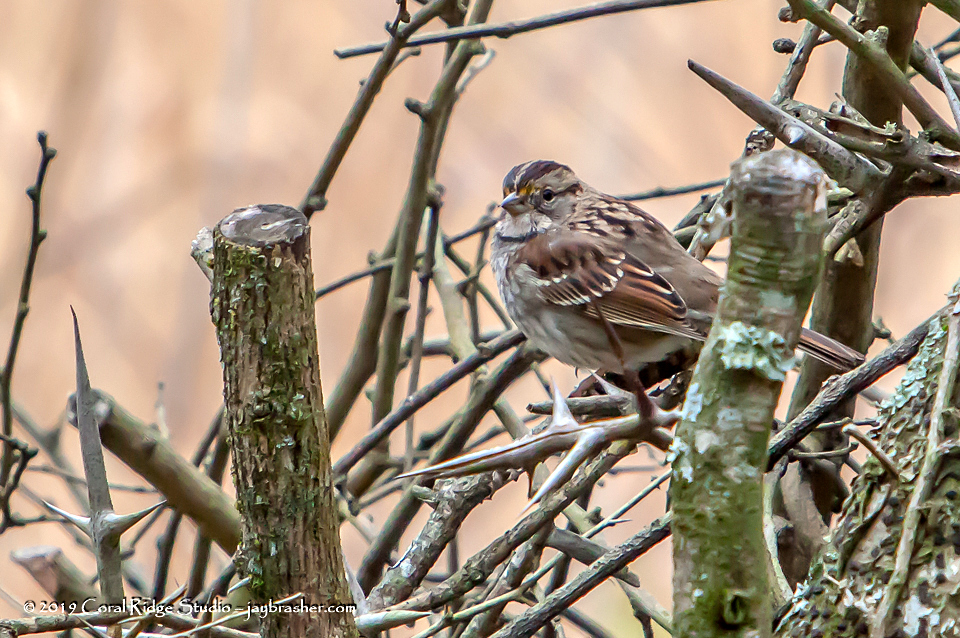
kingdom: Animalia
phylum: Chordata
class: Aves
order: Passeriformes
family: Passerellidae
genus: Zonotrichia
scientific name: Zonotrichia albicollis
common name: White-throated sparrow
